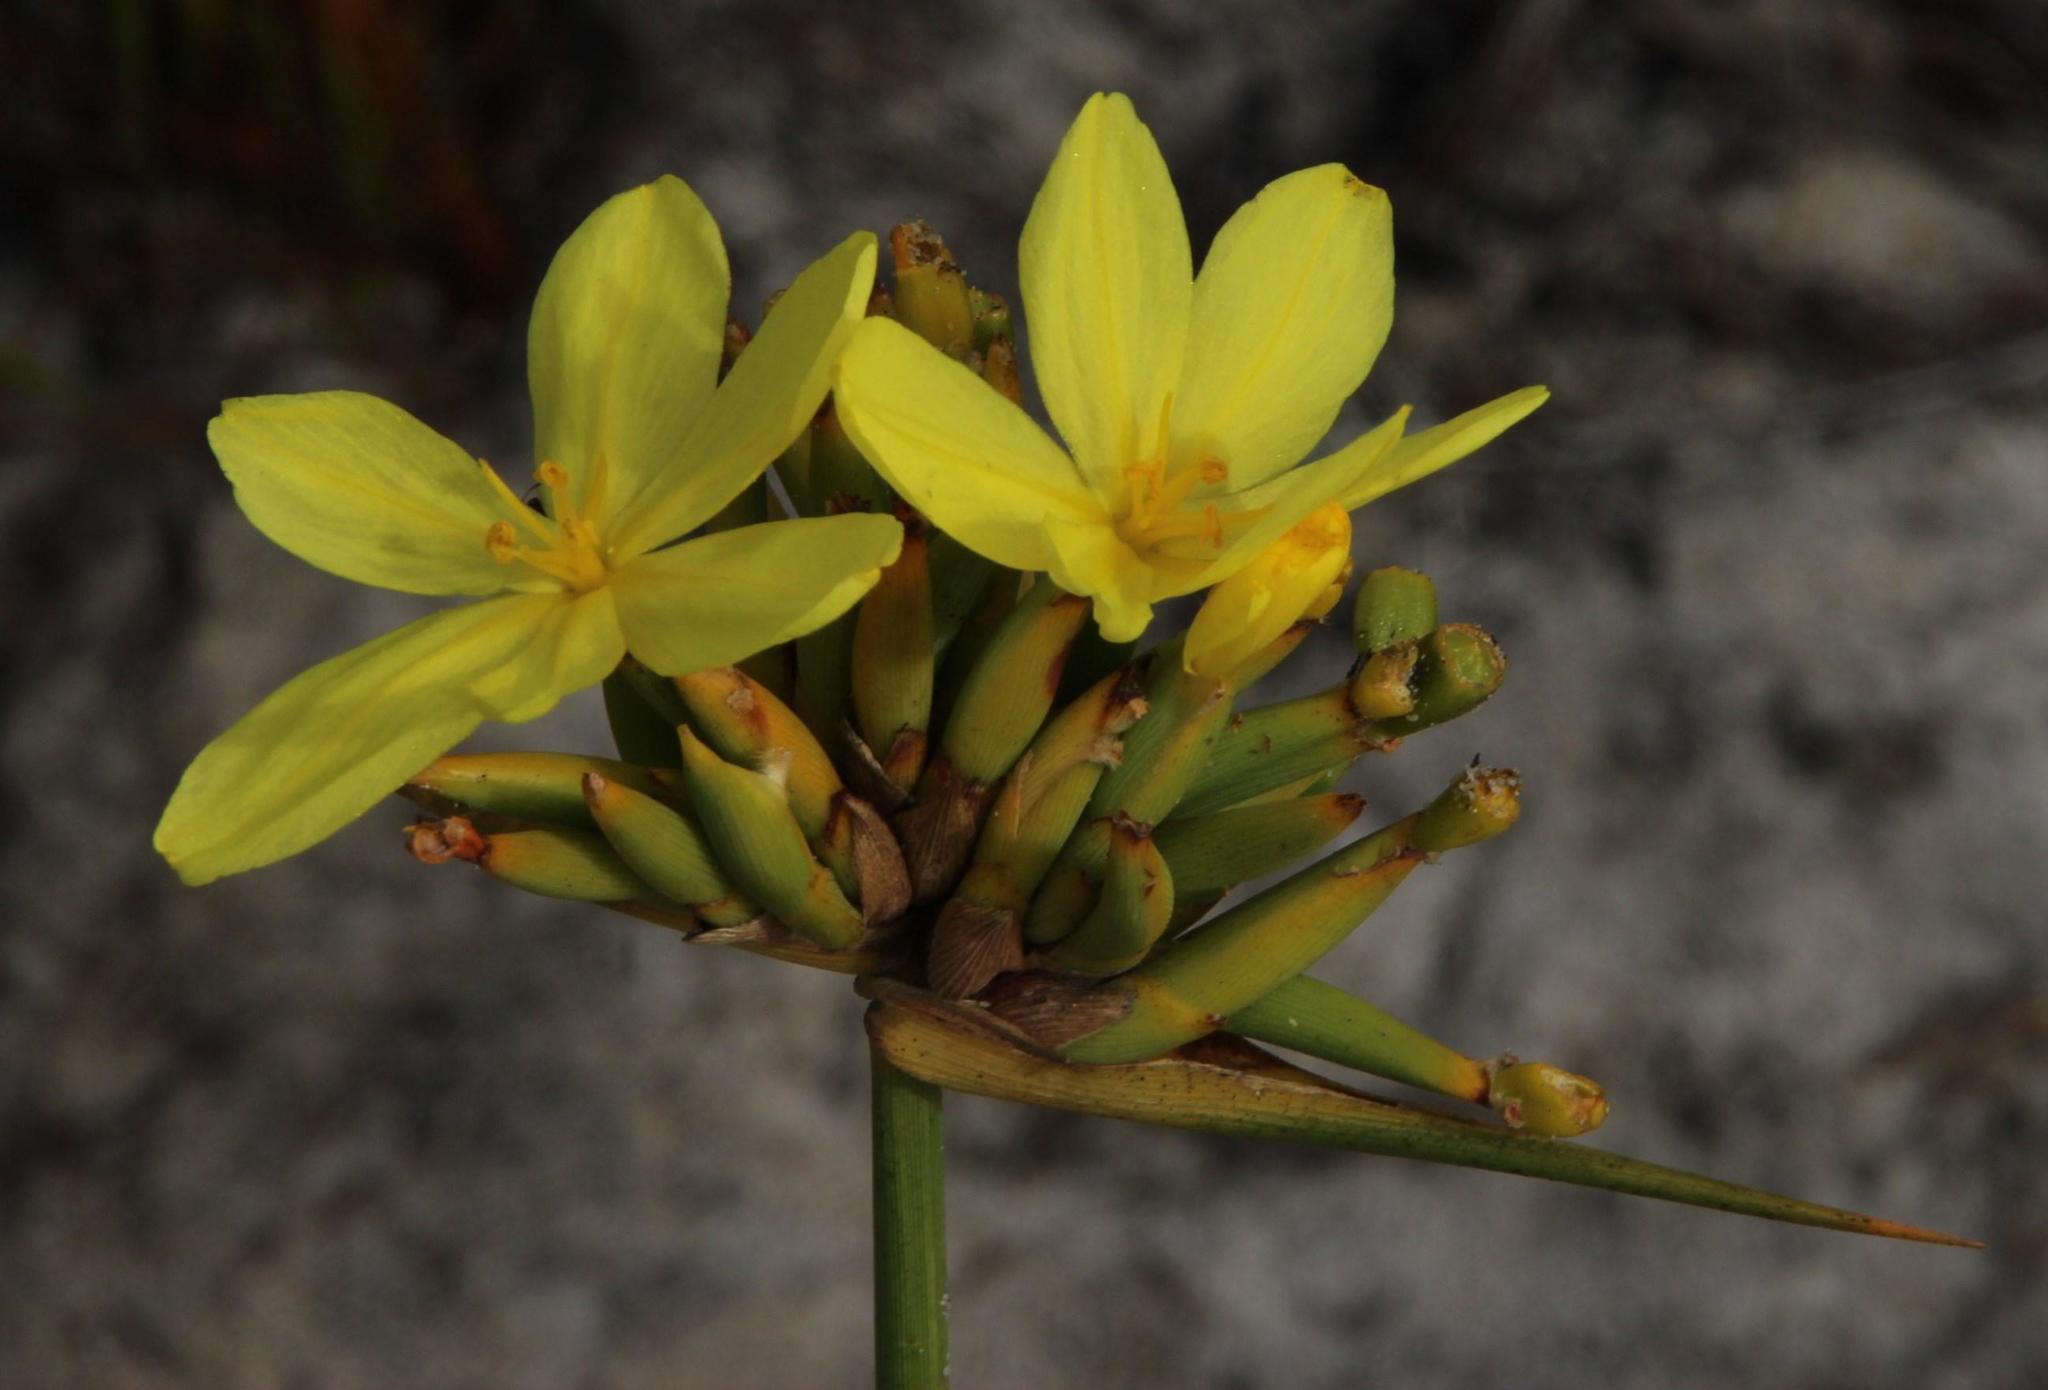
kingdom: Plantae
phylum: Tracheophyta
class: Liliopsida
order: Asparagales
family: Iridaceae
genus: Bobartia
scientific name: Bobartia indica
